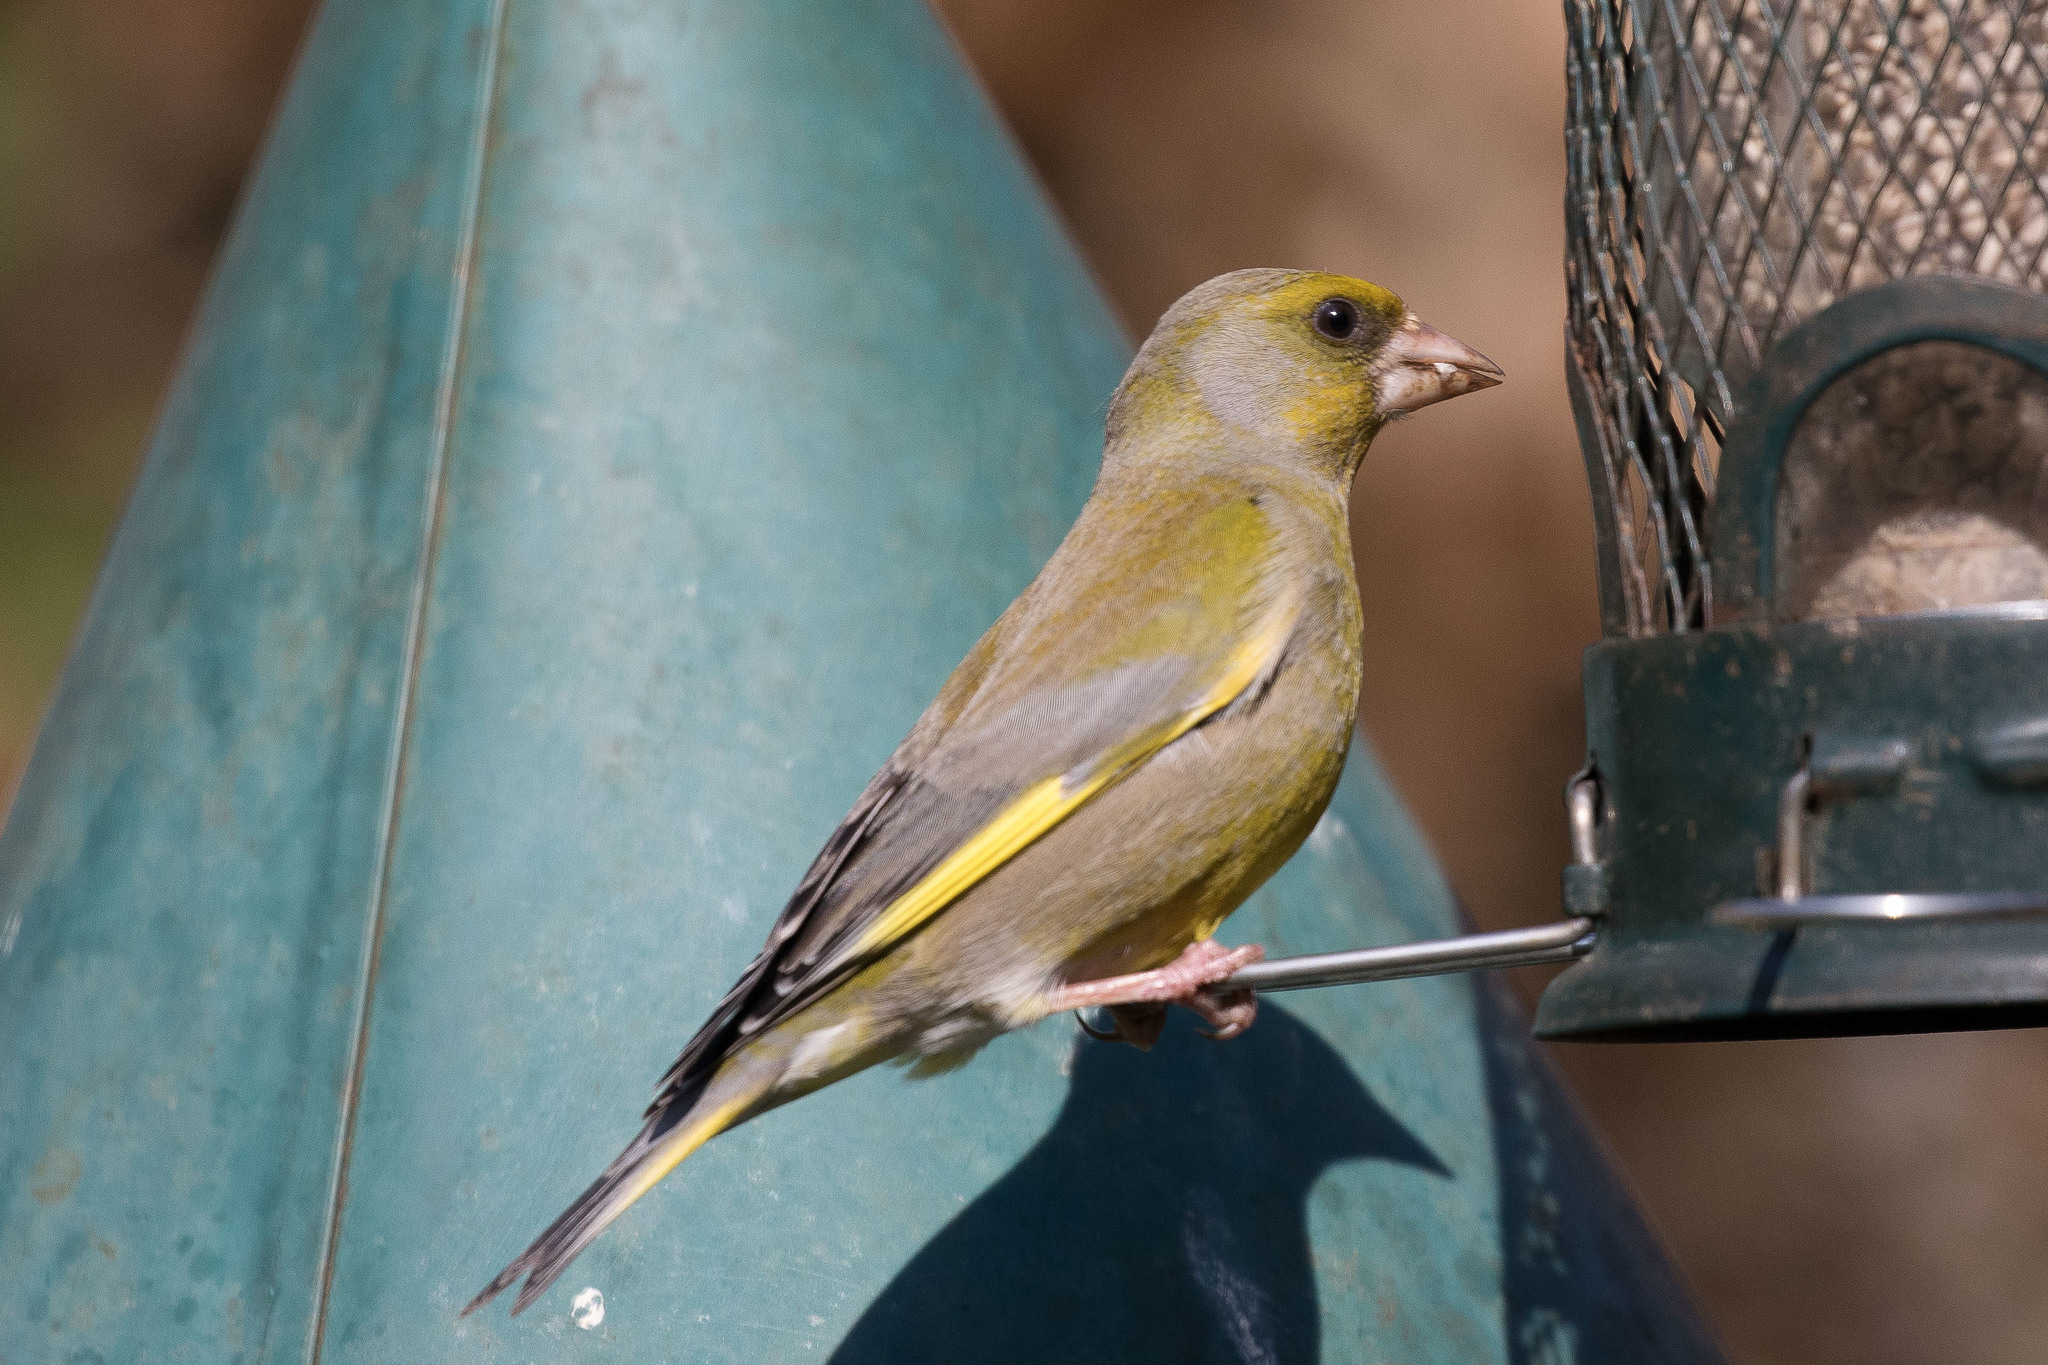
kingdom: Plantae
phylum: Tracheophyta
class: Liliopsida
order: Poales
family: Poaceae
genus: Chloris
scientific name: Chloris chloris
